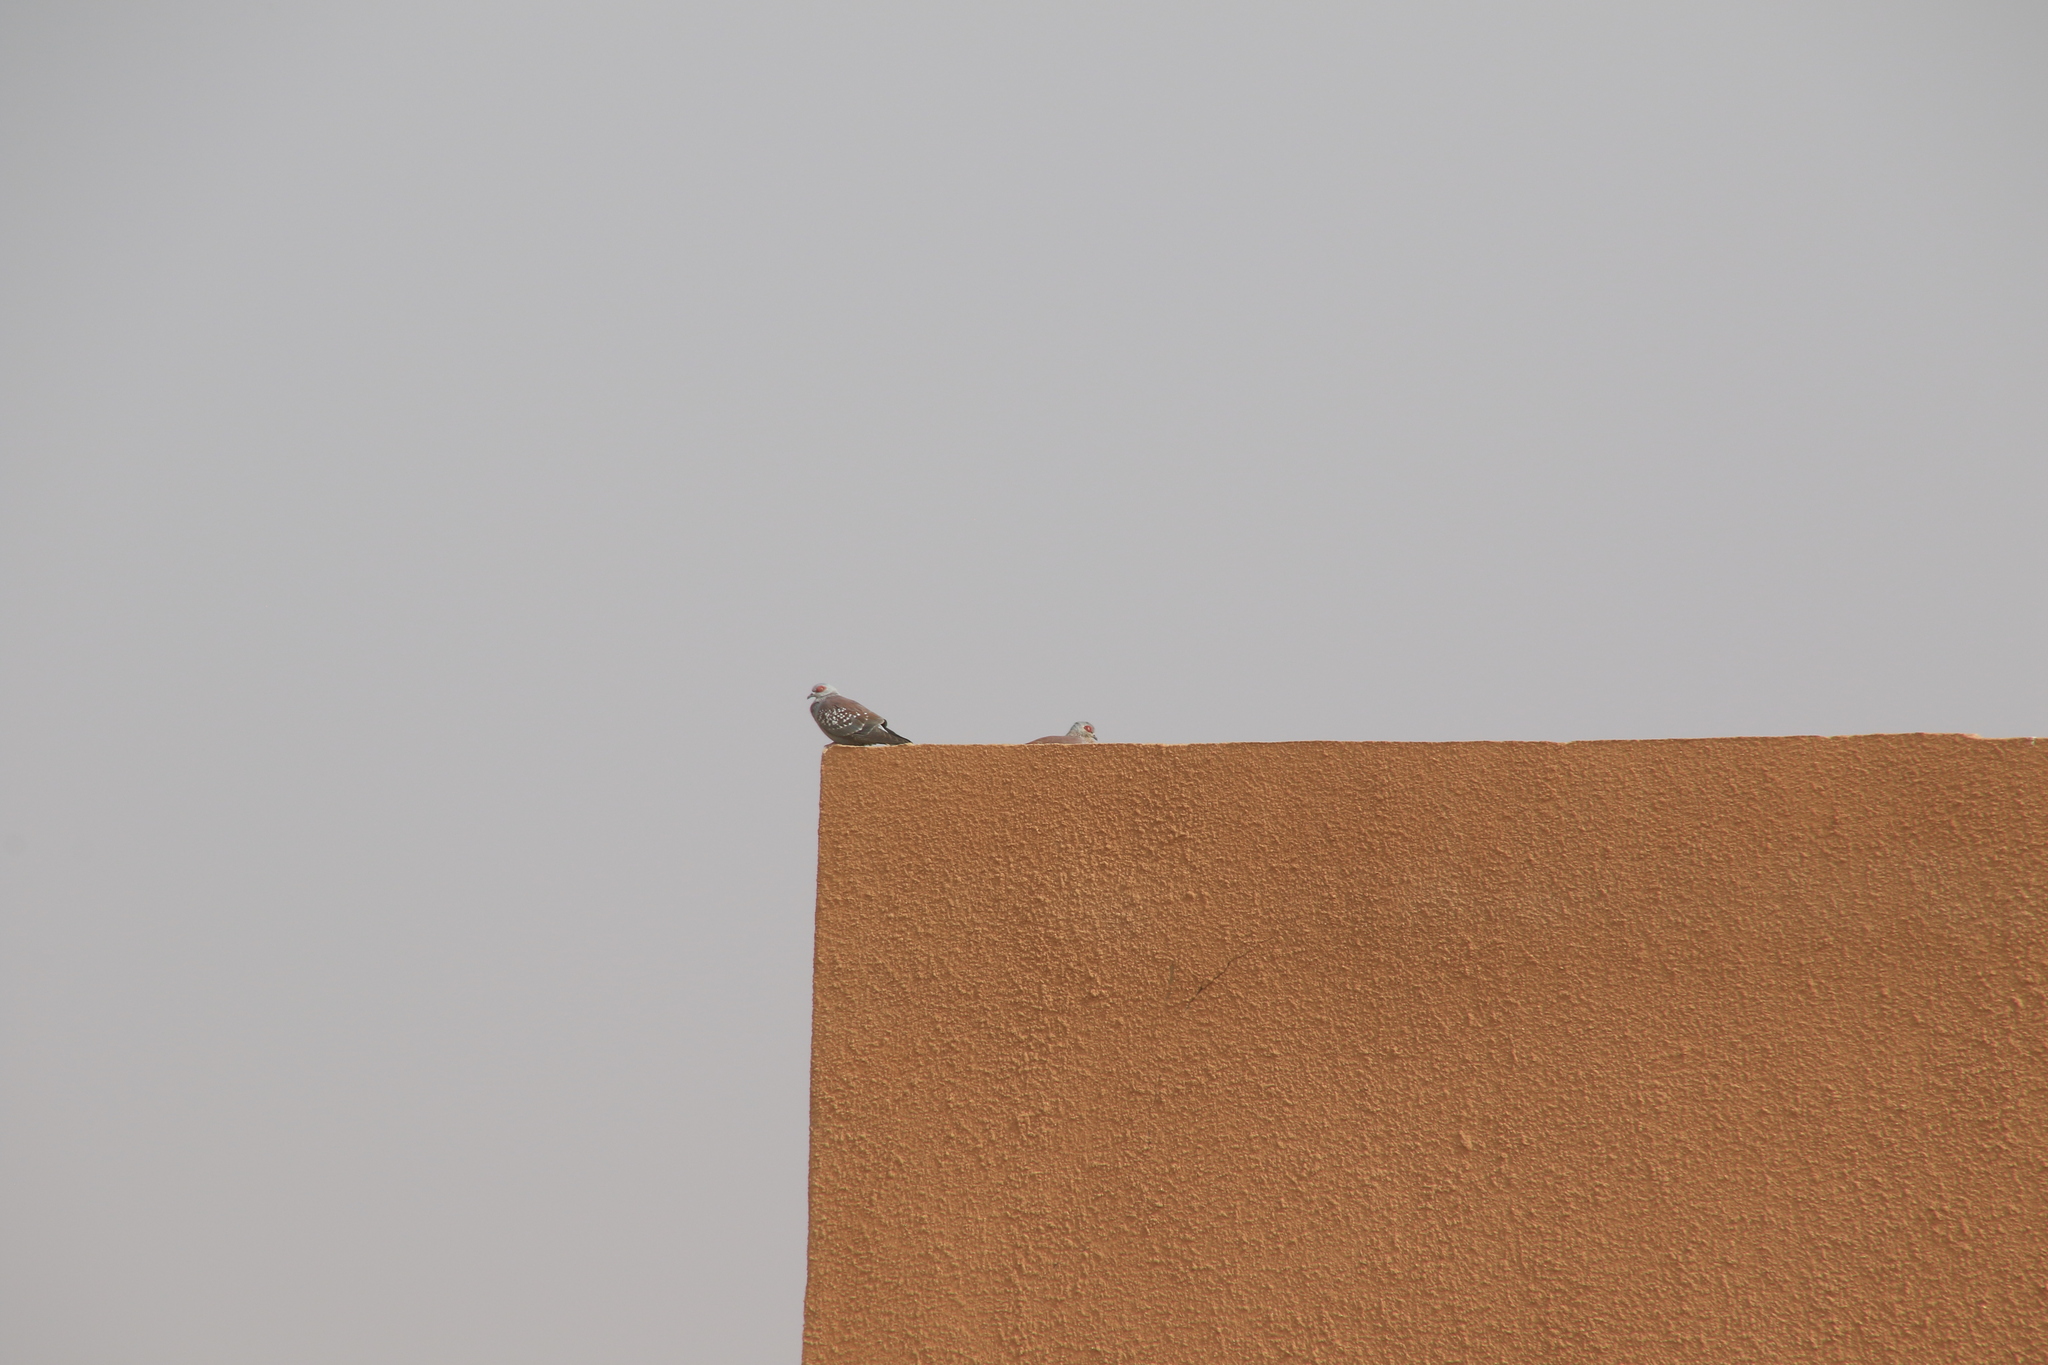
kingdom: Animalia
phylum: Chordata
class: Aves
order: Columbiformes
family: Columbidae
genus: Columba
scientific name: Columba guinea
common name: Speckled pigeon
